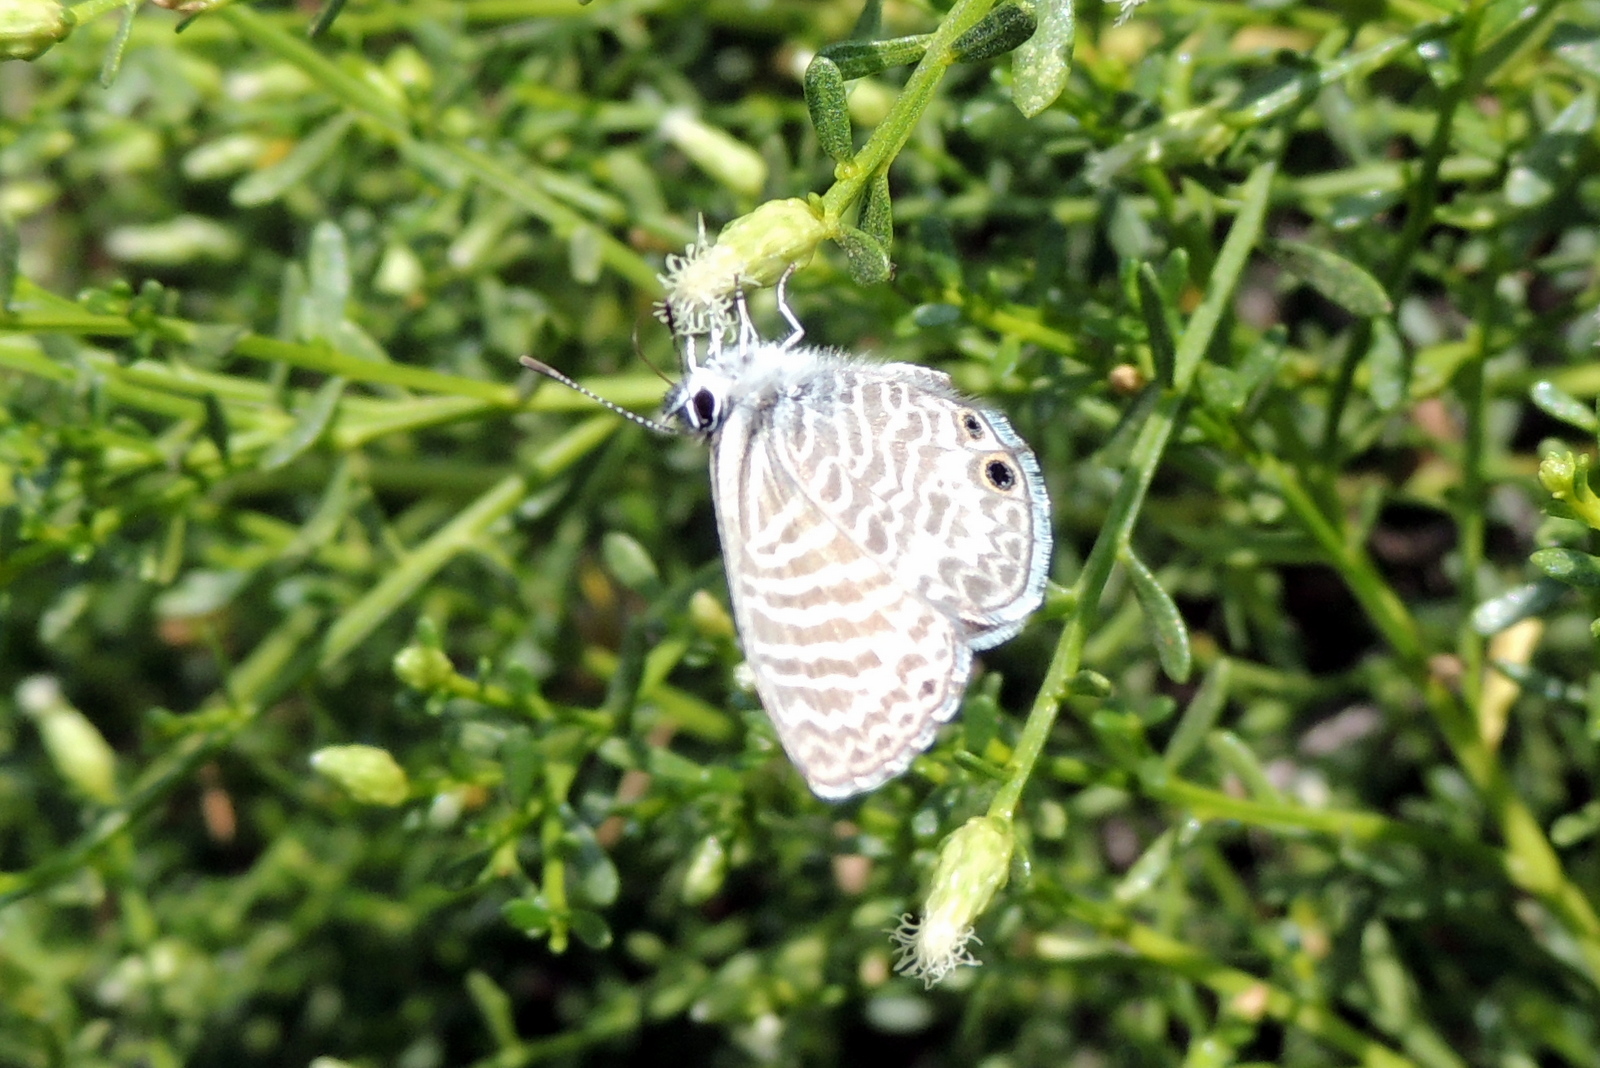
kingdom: Animalia
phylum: Arthropoda
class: Insecta
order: Lepidoptera
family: Lycaenidae
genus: Leptotes
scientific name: Leptotes marina
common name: Marine blue
